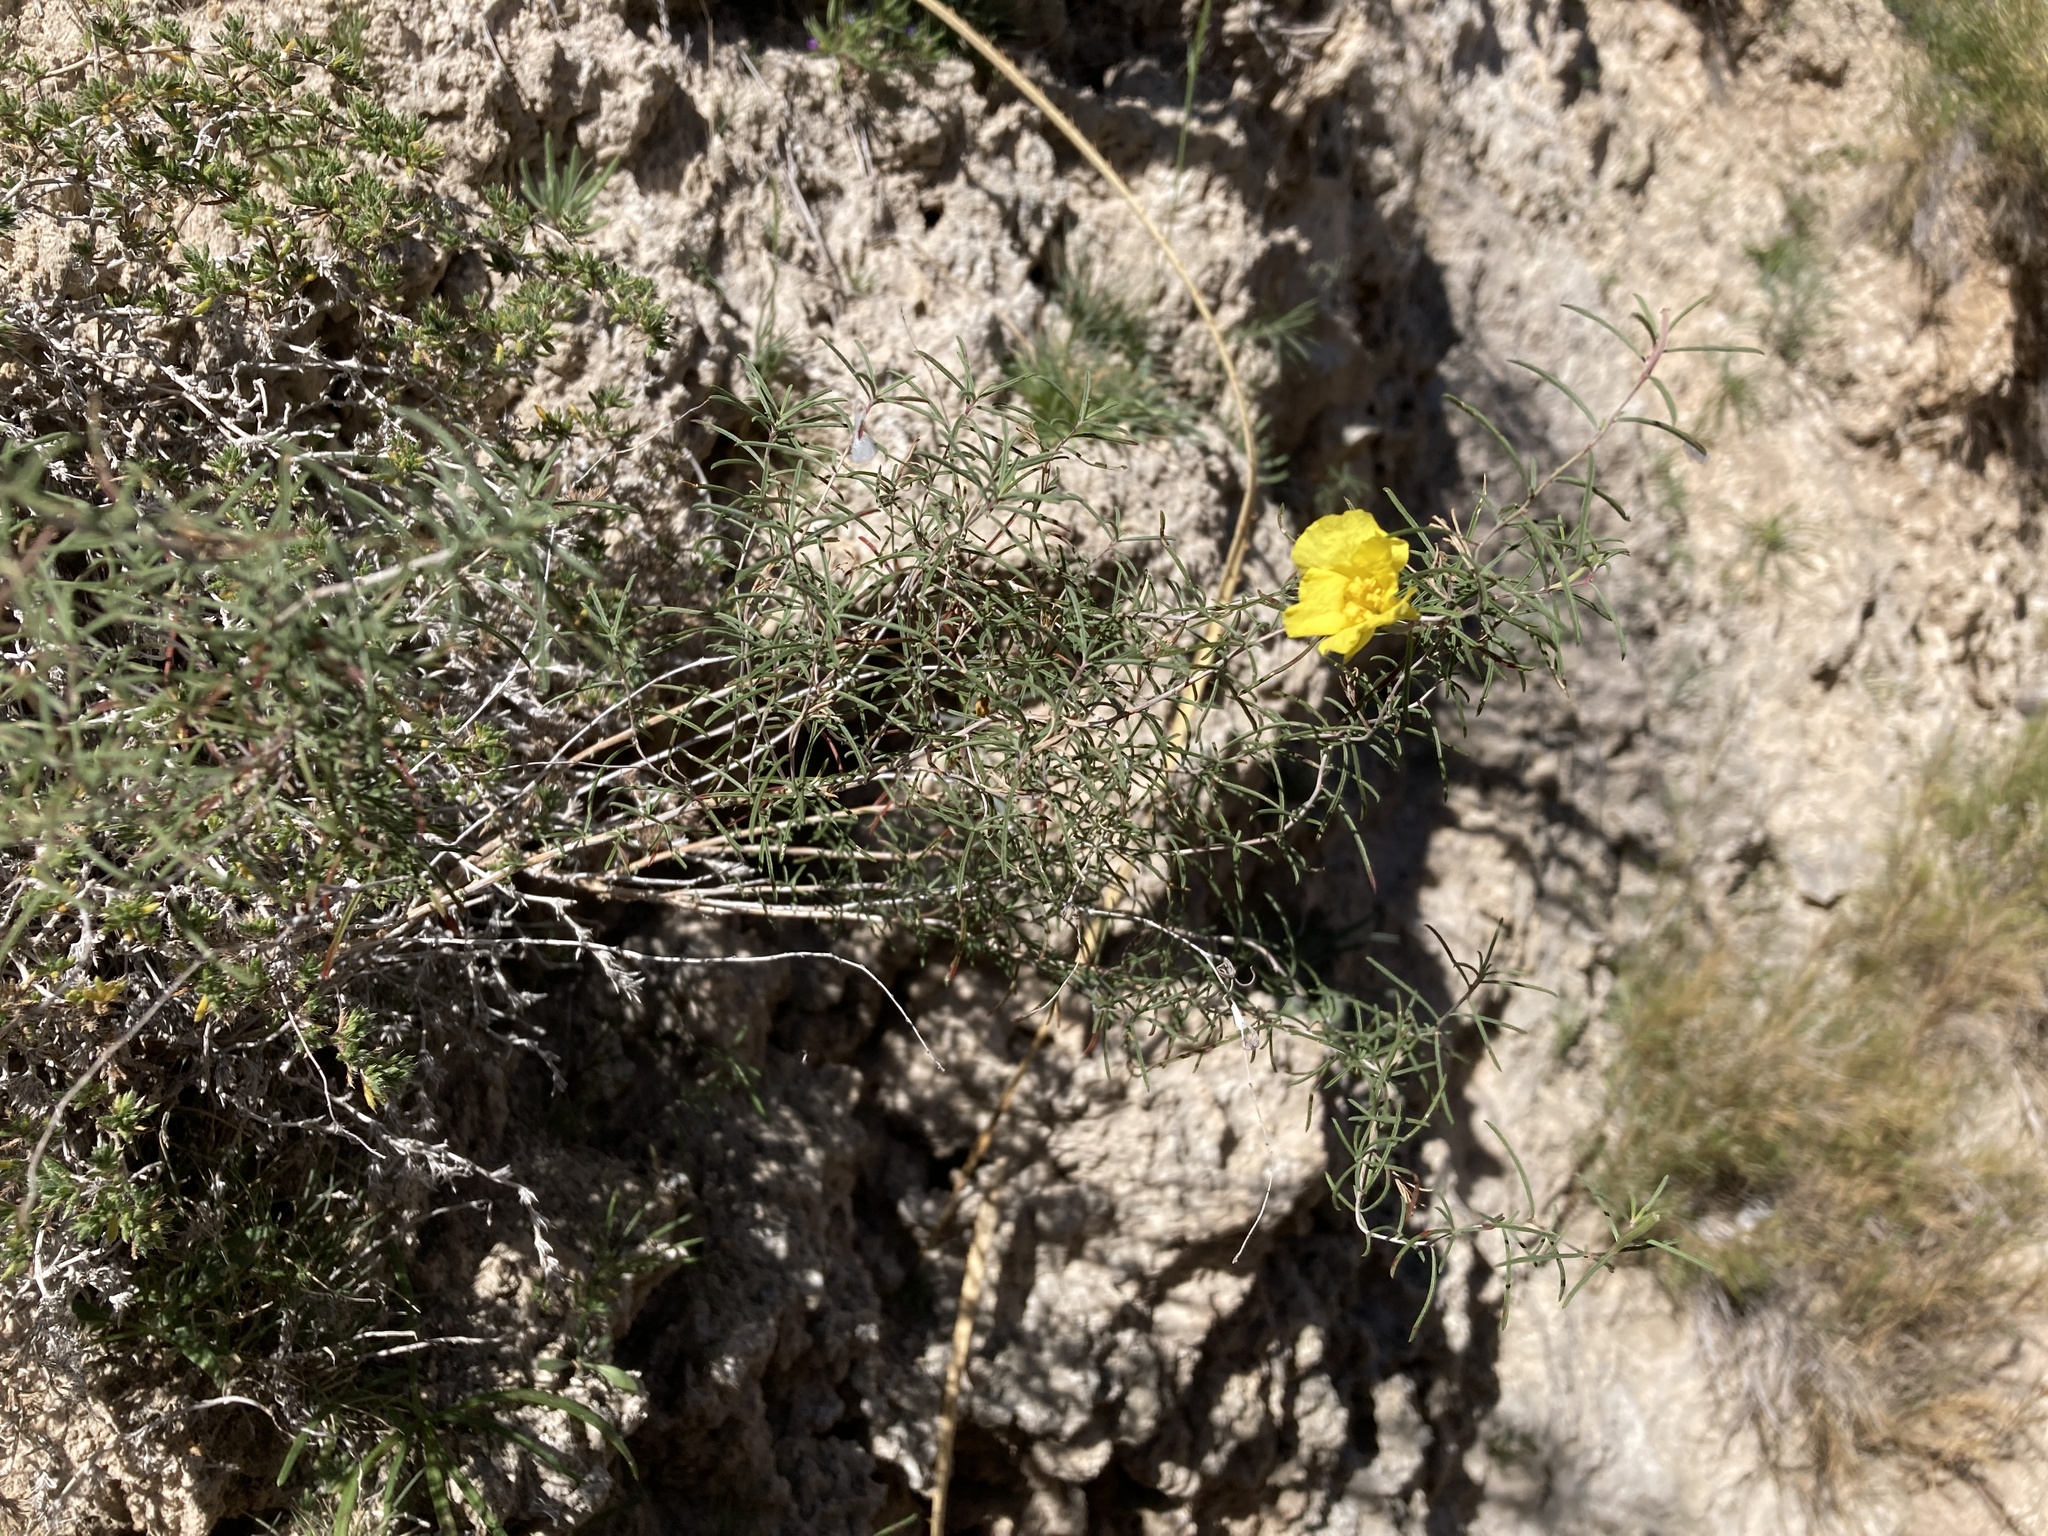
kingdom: Plantae
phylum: Tracheophyta
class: Magnoliopsida
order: Myrtales
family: Onagraceae
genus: Oenothera
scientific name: Oenothera gayleana
